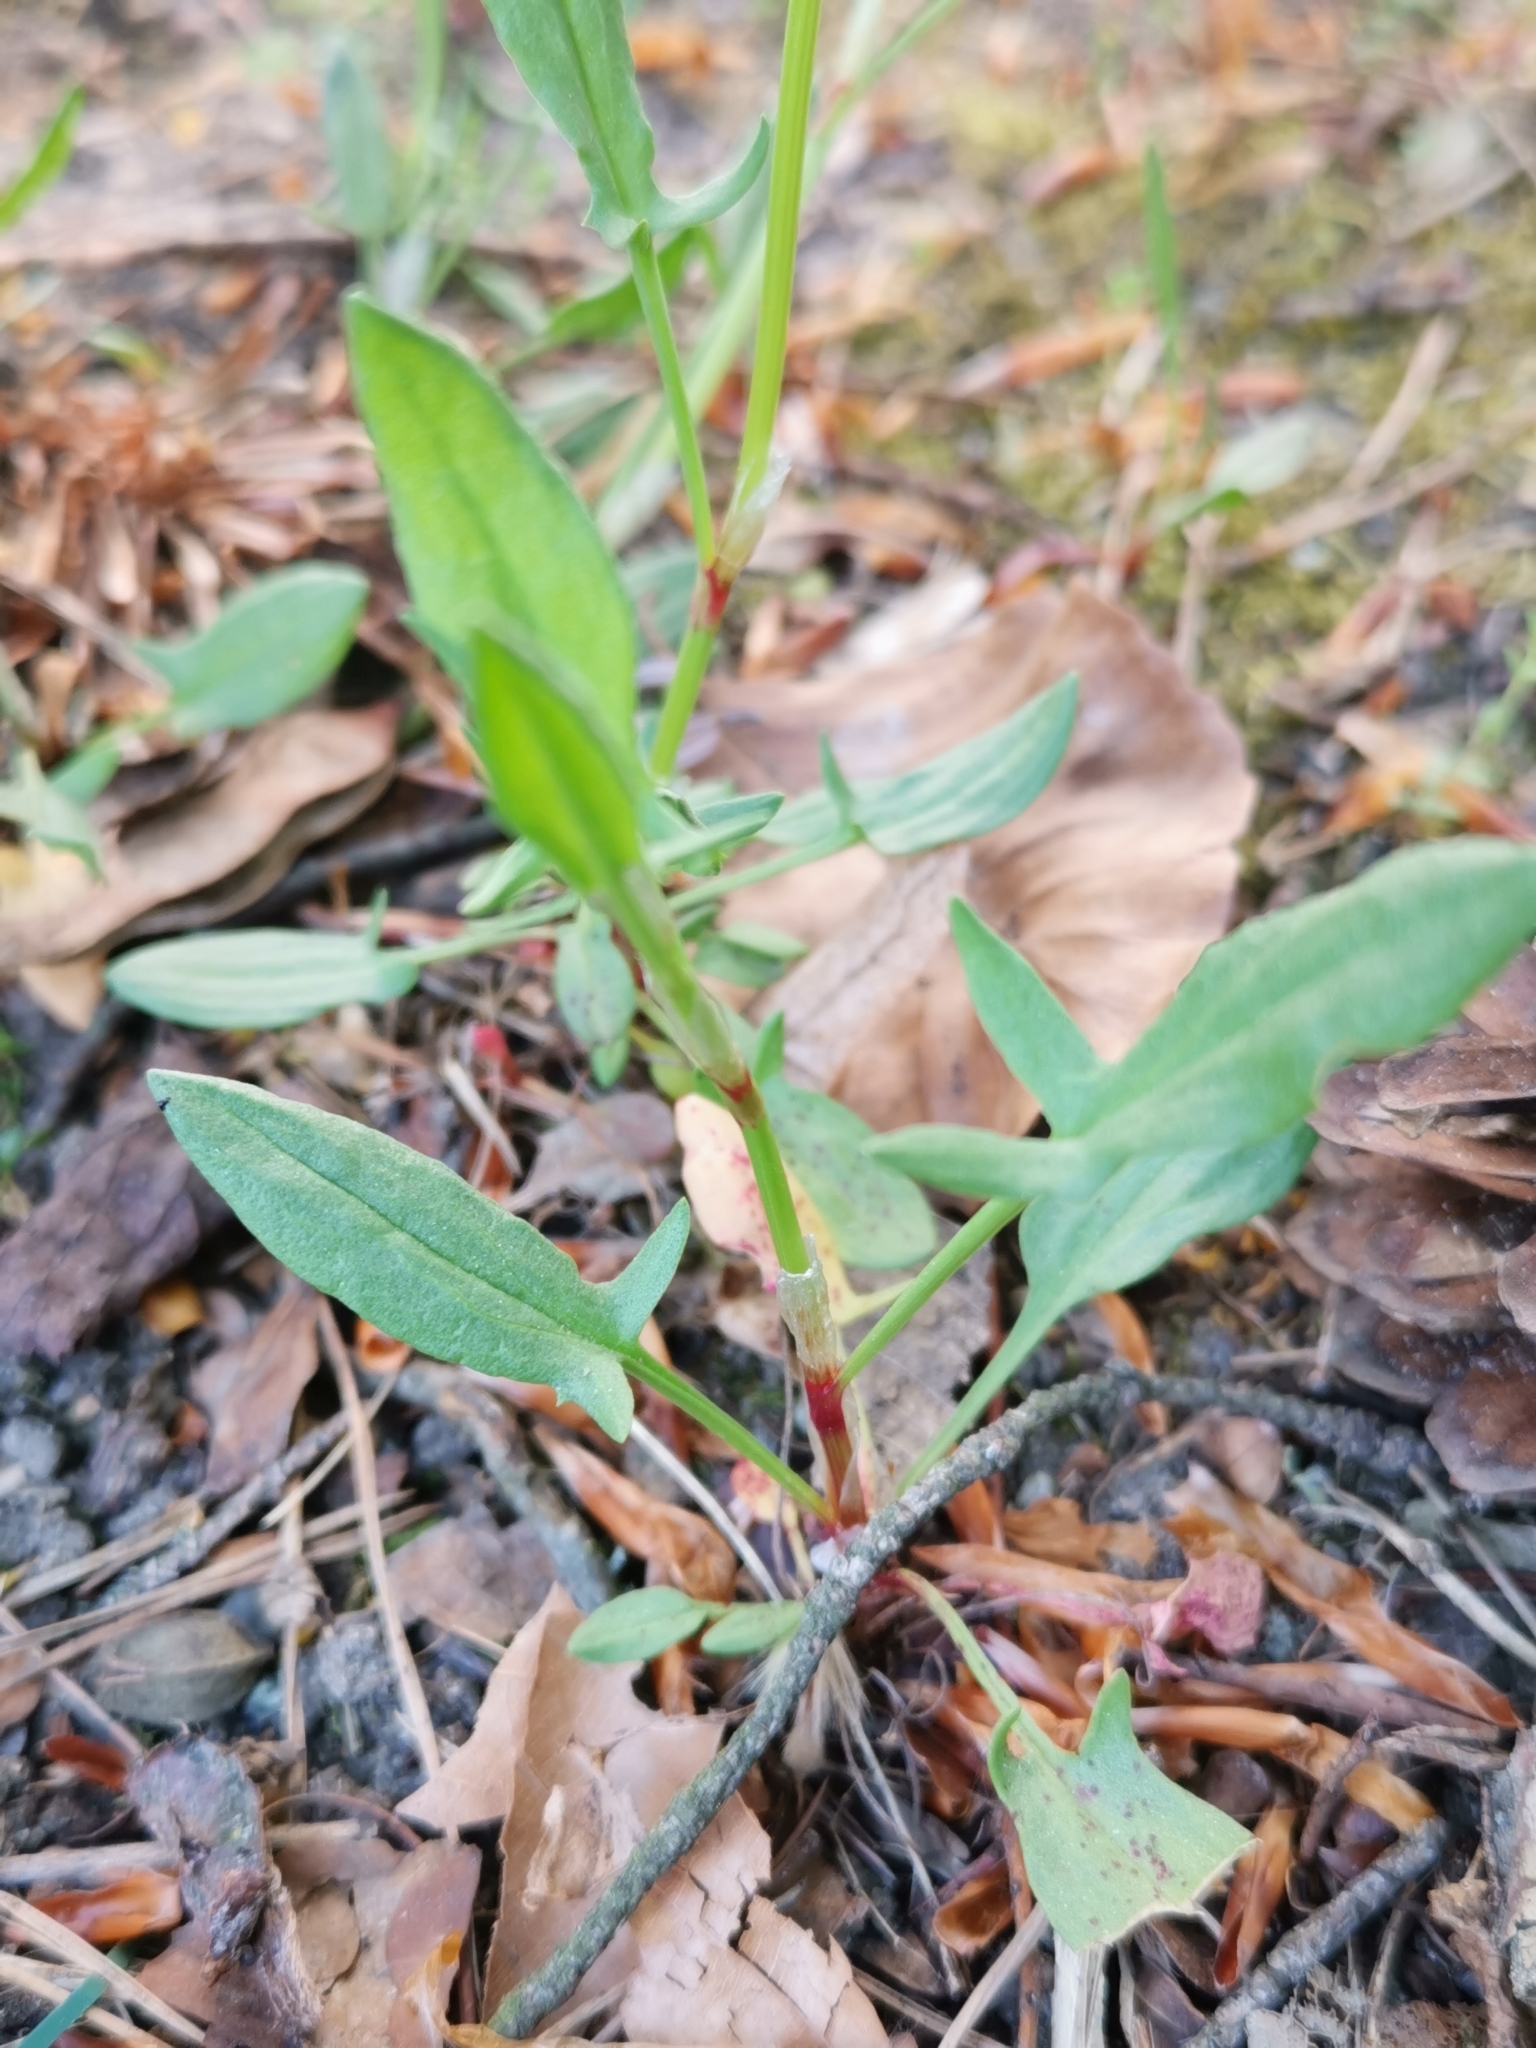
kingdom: Plantae
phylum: Tracheophyta
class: Magnoliopsida
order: Caryophyllales
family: Polygonaceae
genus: Rumex
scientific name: Rumex acetosella
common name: Common sheep sorrel
